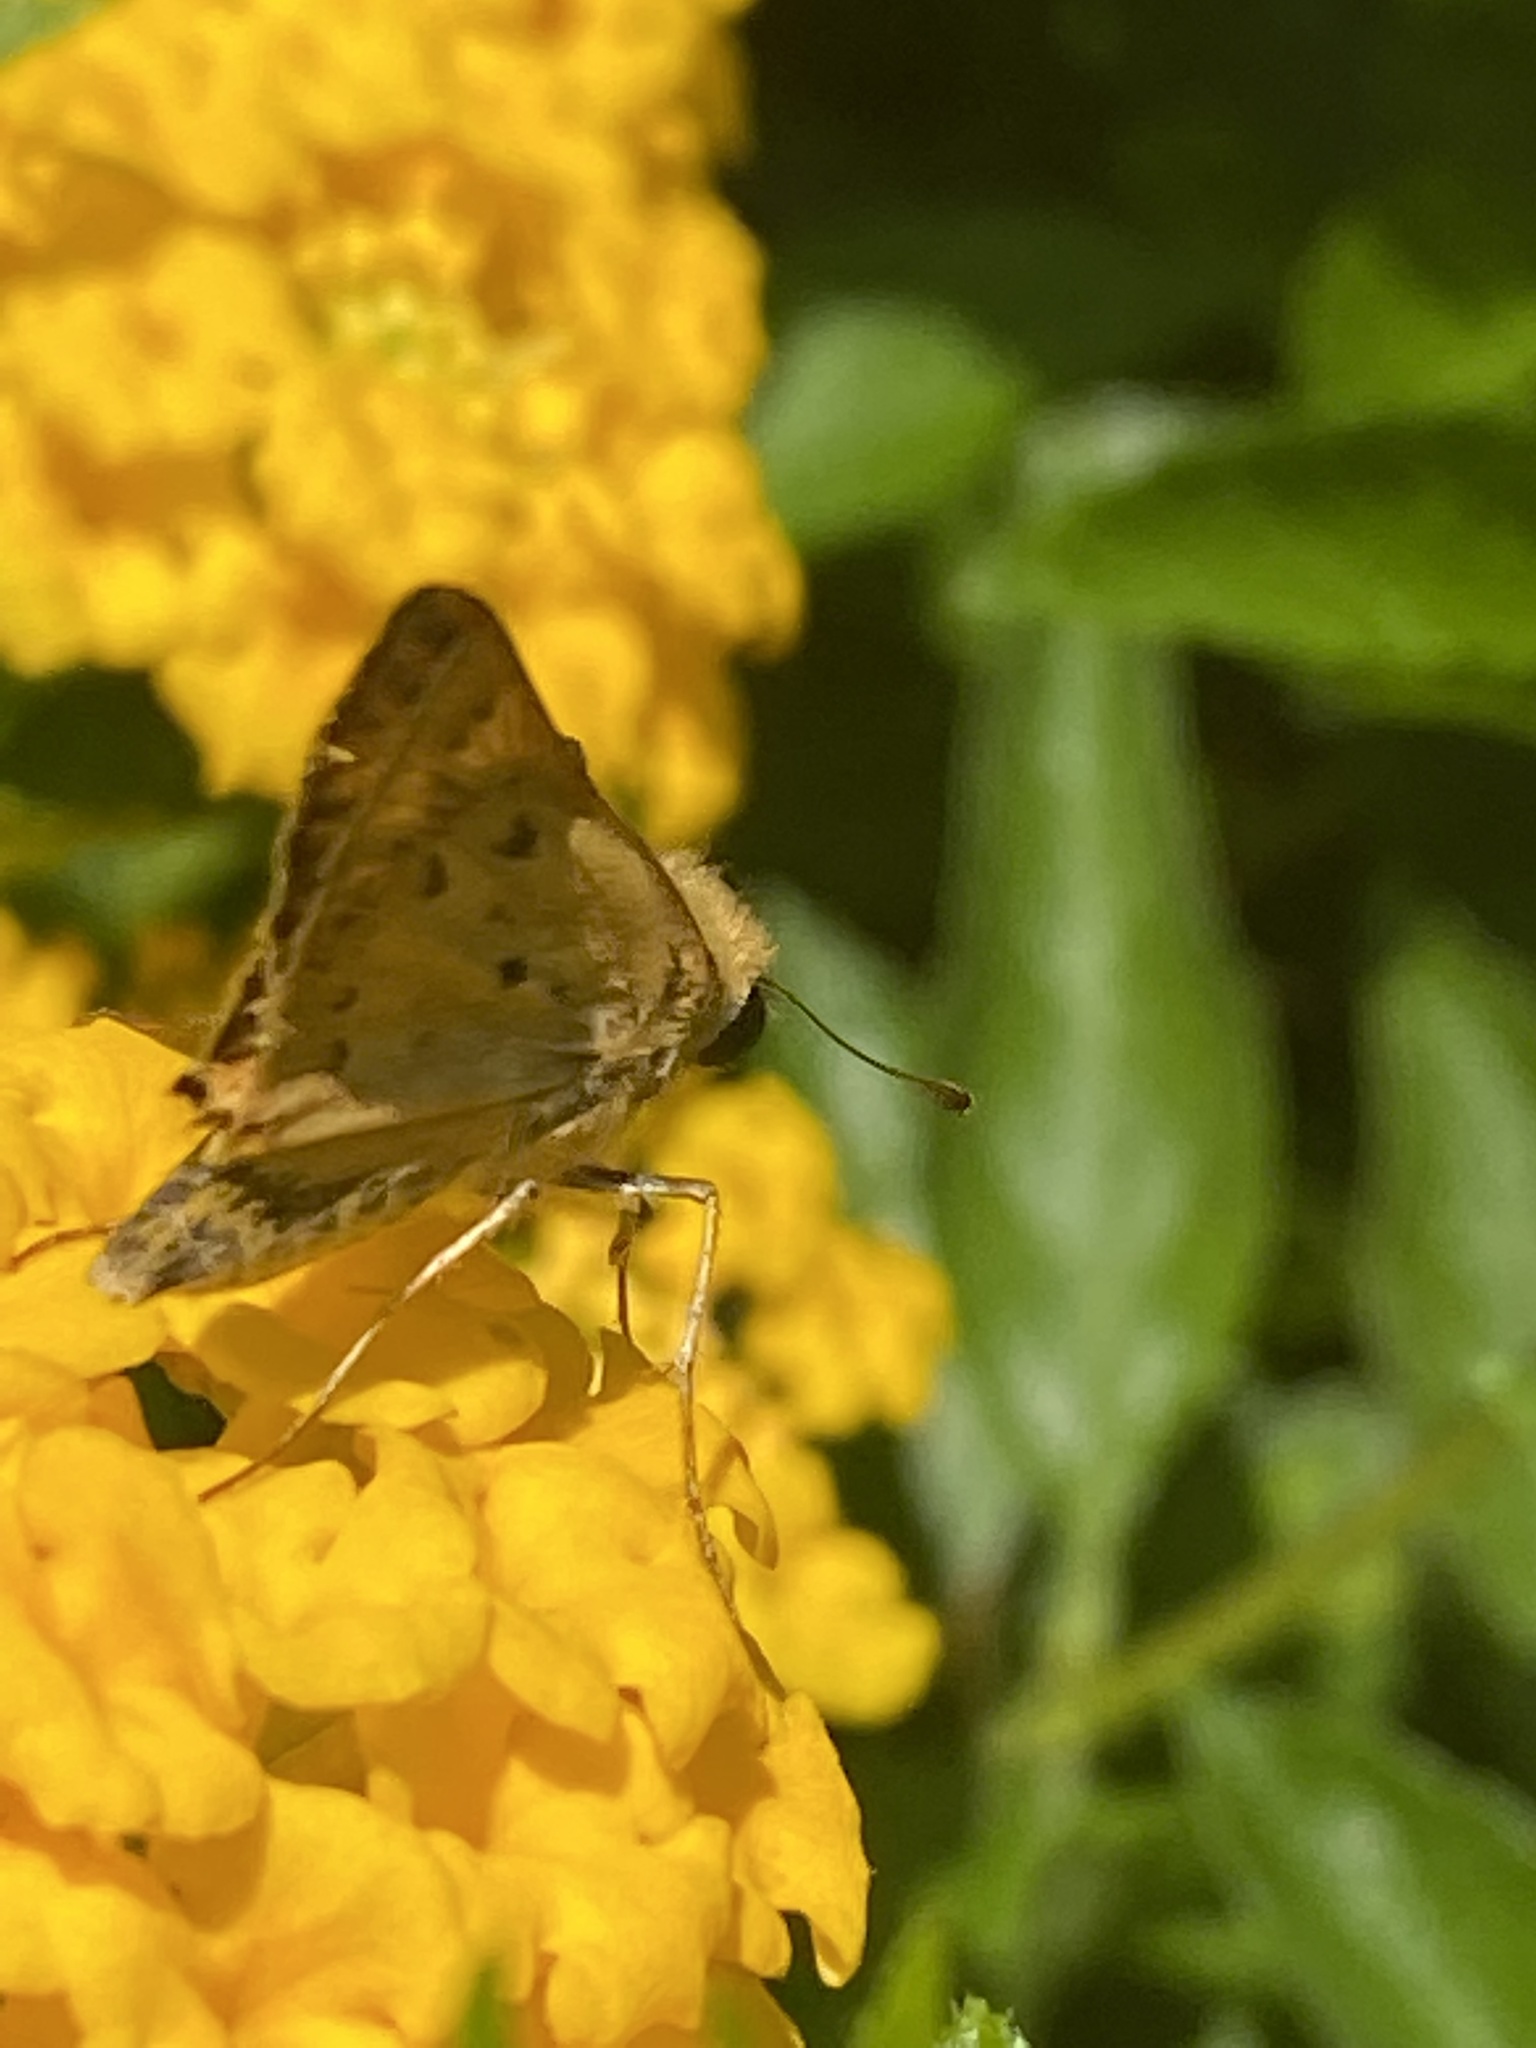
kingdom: Animalia
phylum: Arthropoda
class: Insecta
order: Lepidoptera
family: Hesperiidae
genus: Hylephila
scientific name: Hylephila phyleus
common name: Fiery skipper
